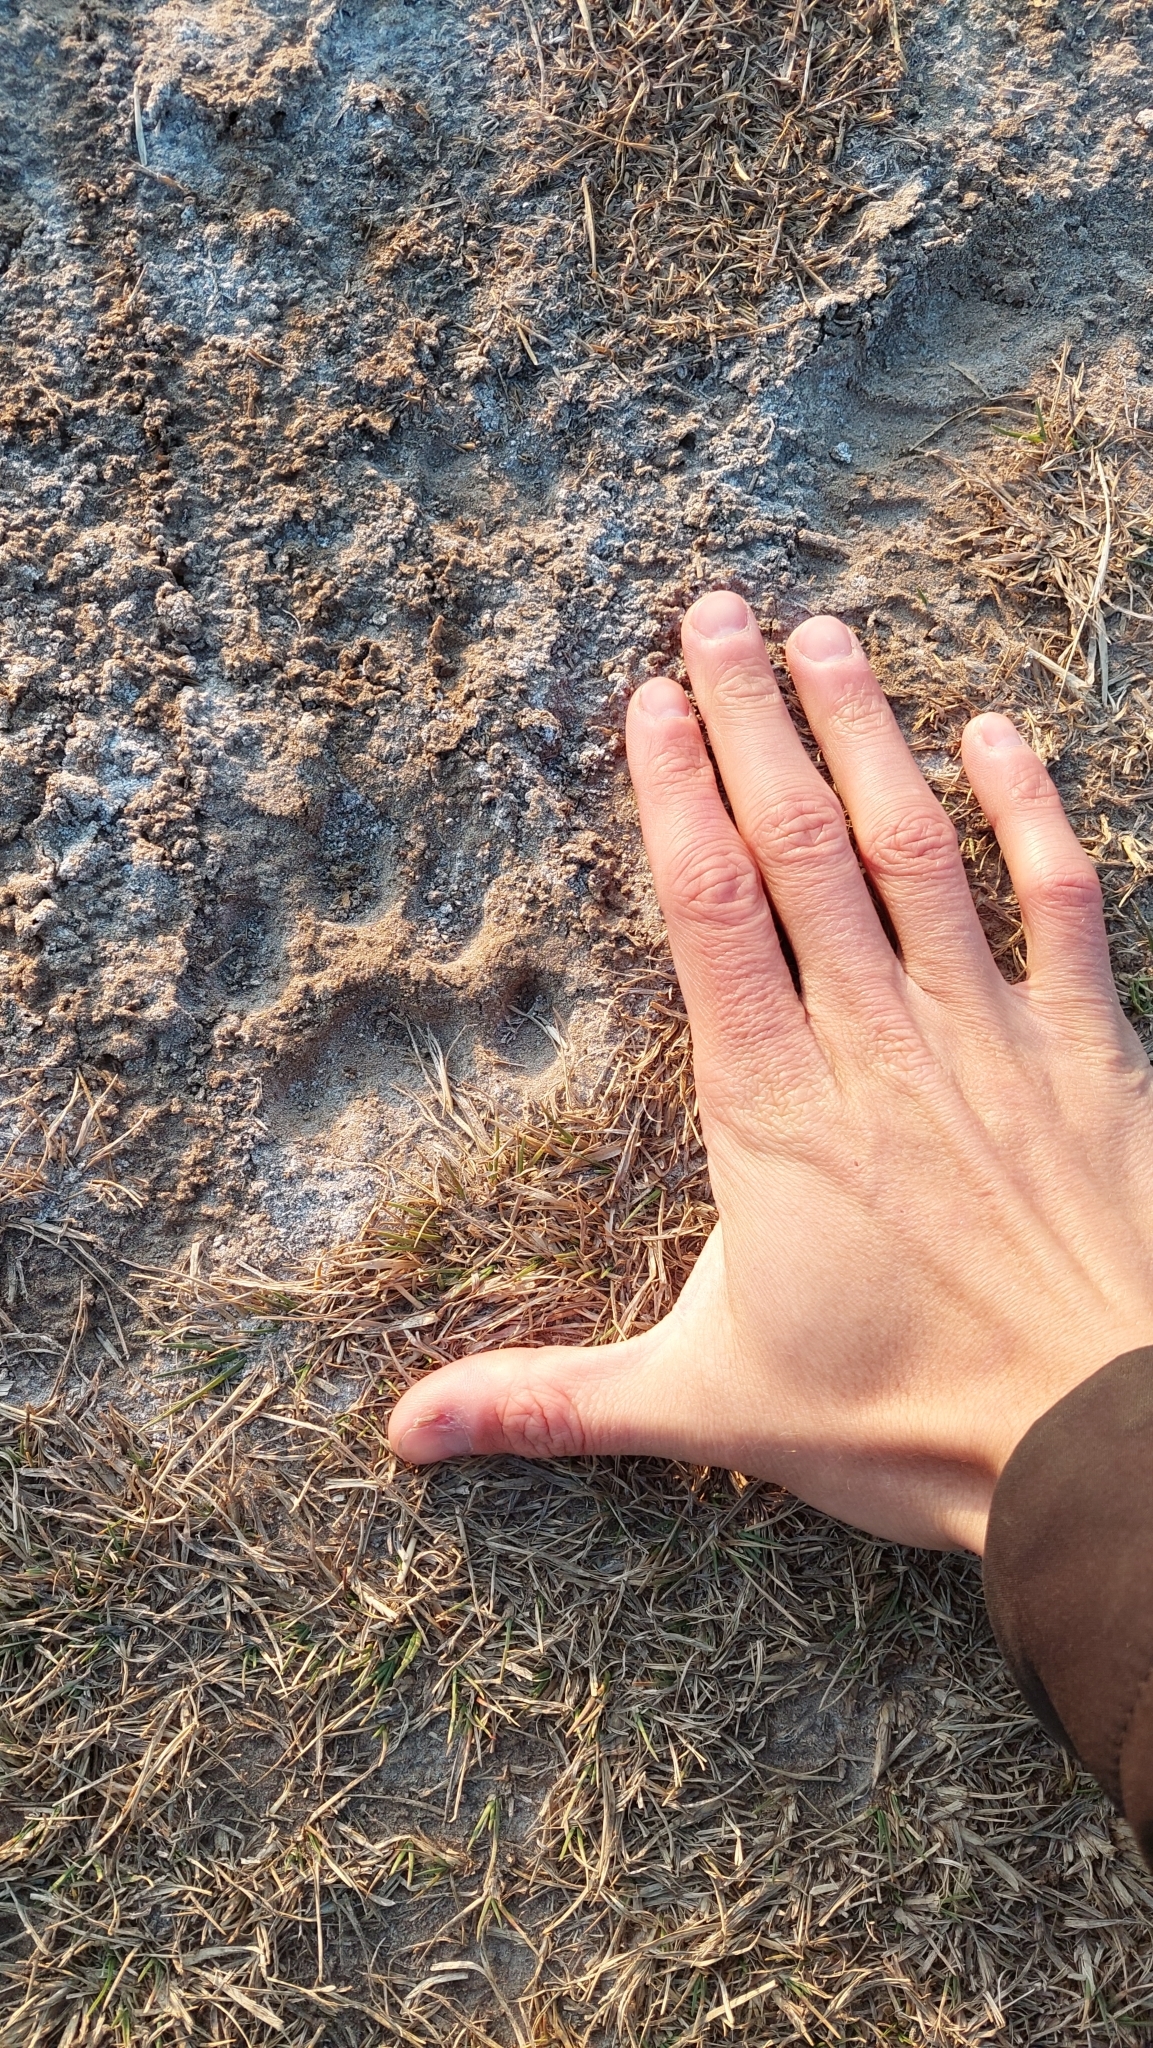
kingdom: Animalia
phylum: Chordata
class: Mammalia
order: Carnivora
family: Felidae
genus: Puma
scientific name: Puma concolor
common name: Puma
